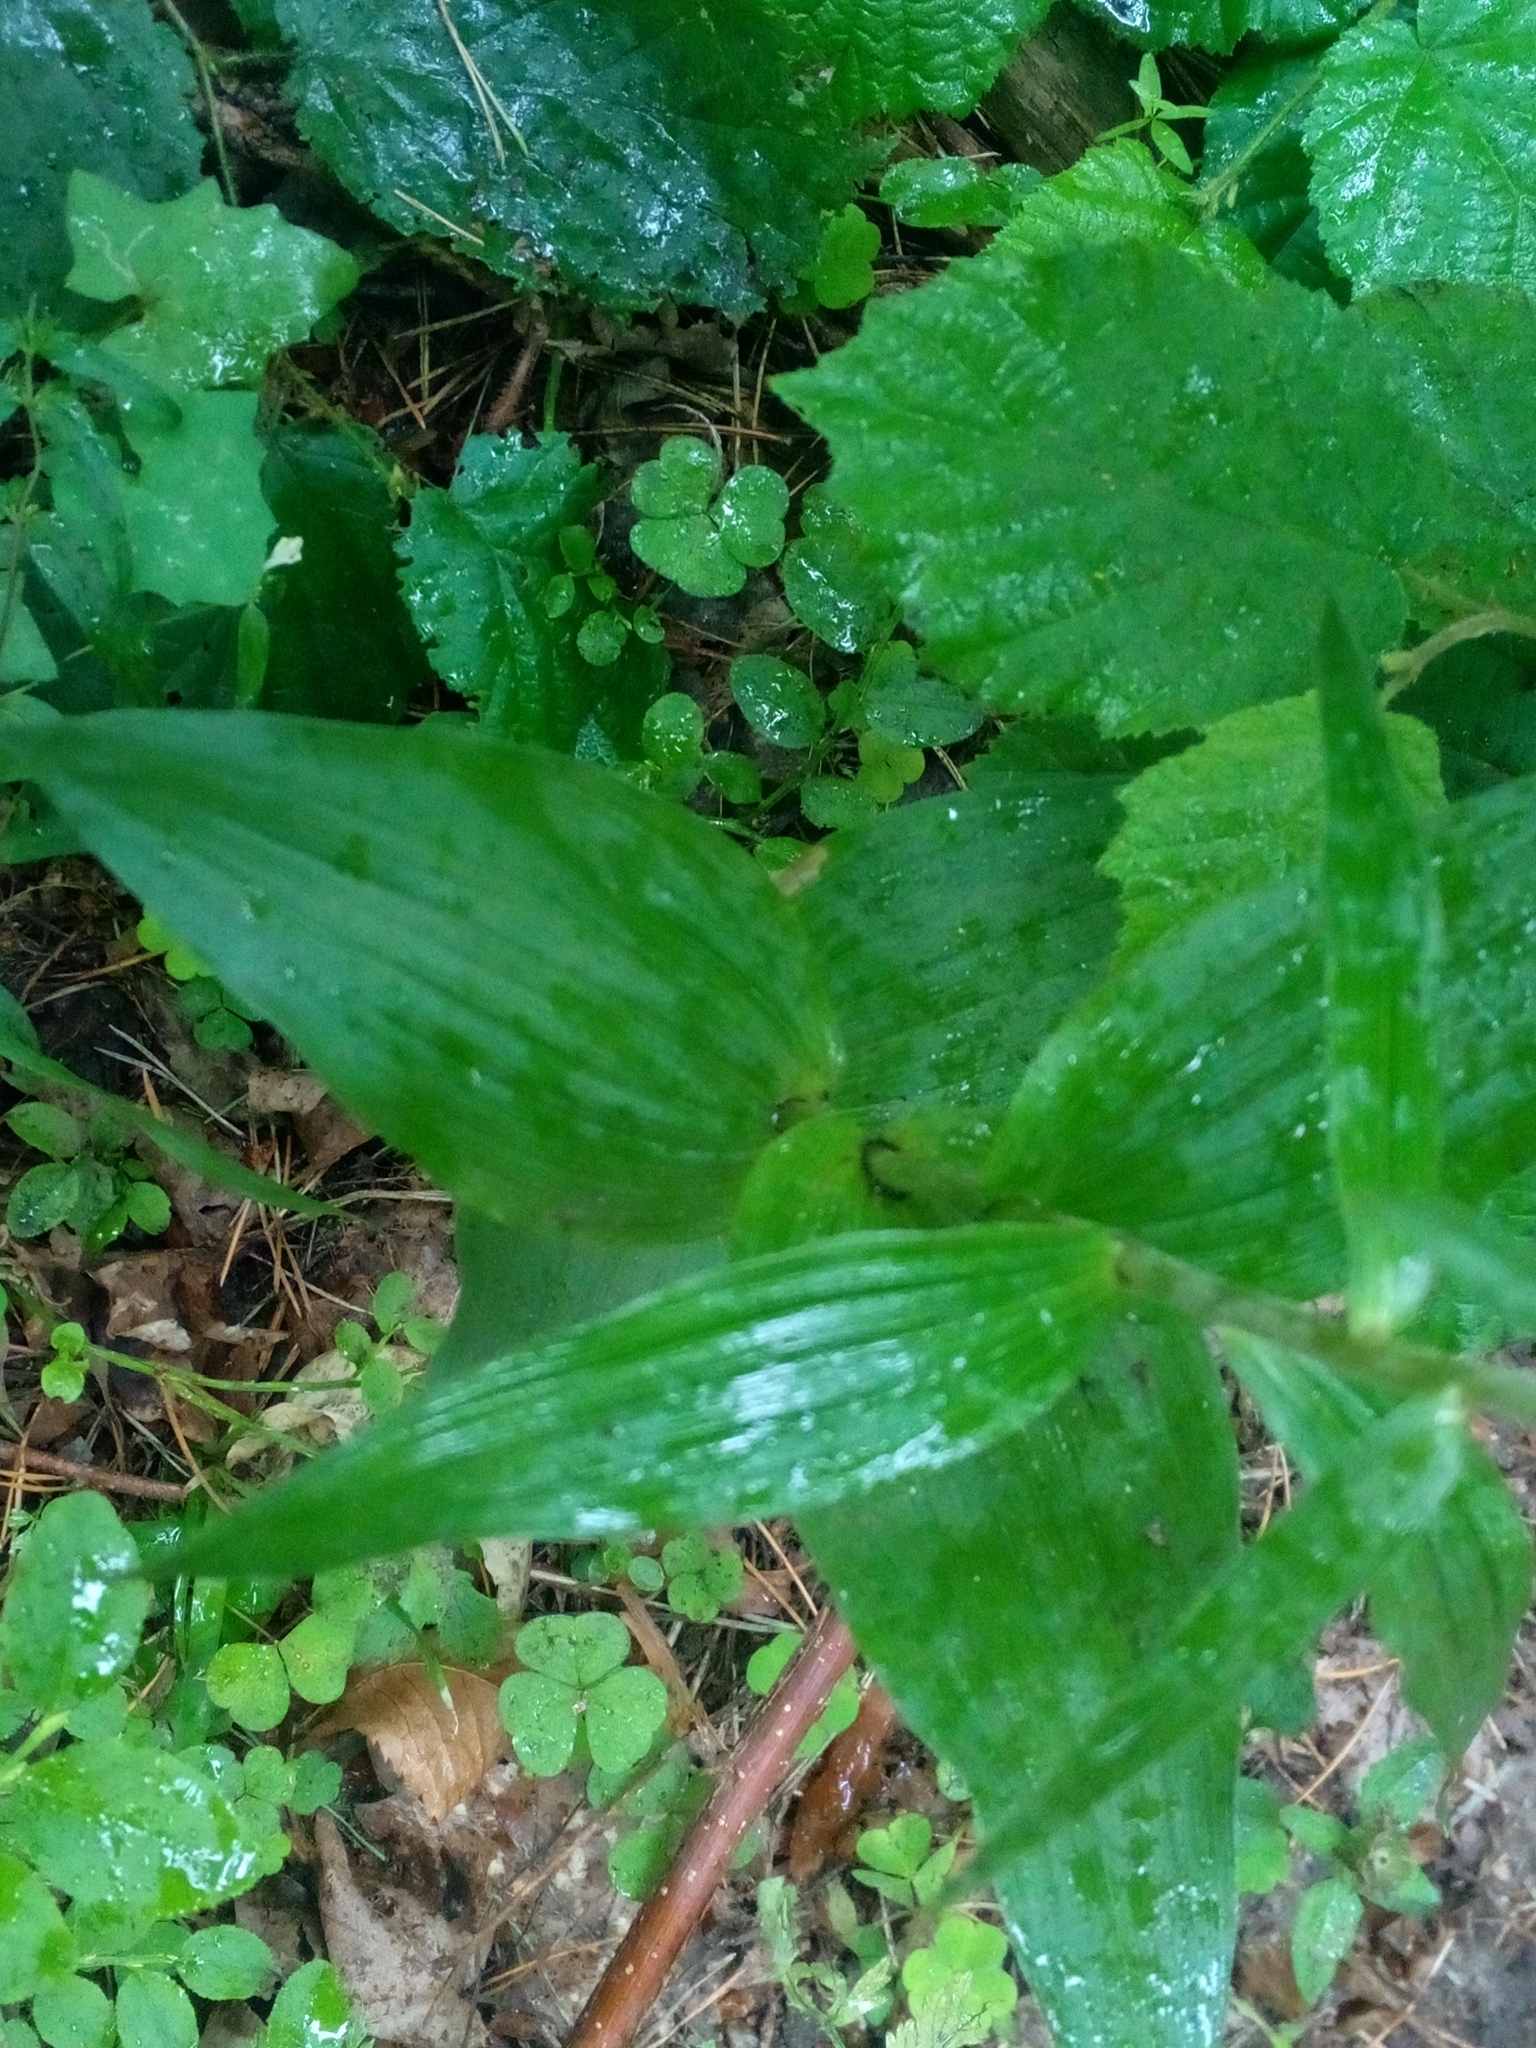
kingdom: Plantae
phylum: Tracheophyta
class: Liliopsida
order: Asparagales
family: Orchidaceae
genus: Epipactis
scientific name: Epipactis helleborine
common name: Broad-leaved helleborine
